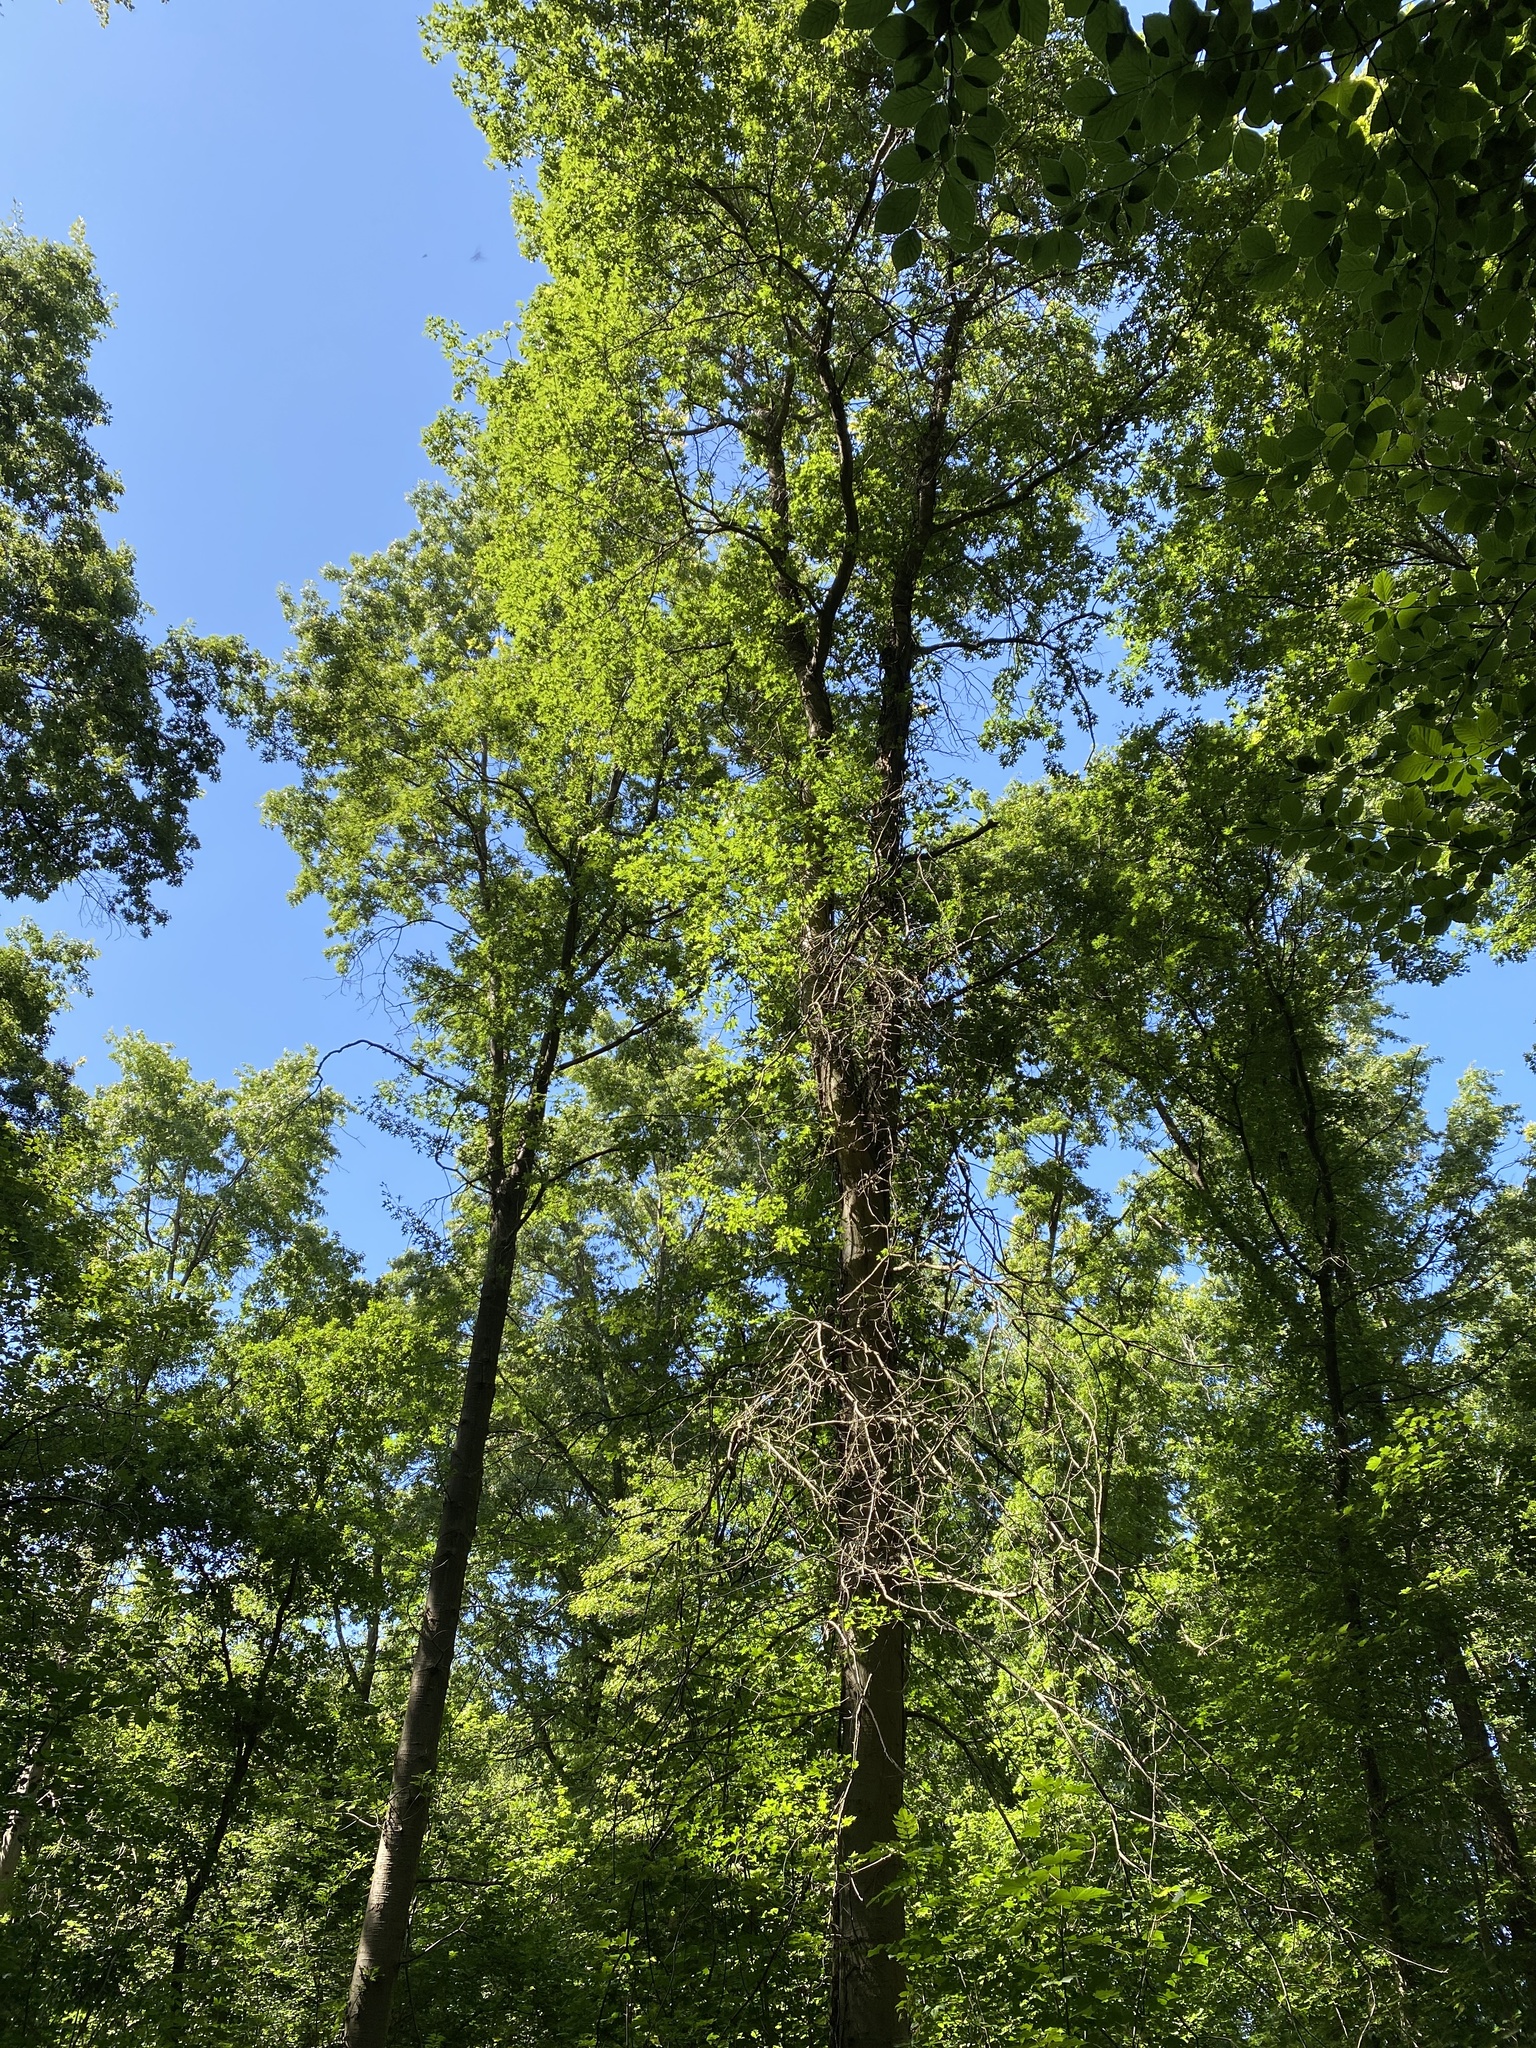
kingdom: Plantae
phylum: Tracheophyta
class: Magnoliopsida
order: Fagales
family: Fagaceae
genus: Quercus
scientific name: Quercus palustris
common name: Pin oak
